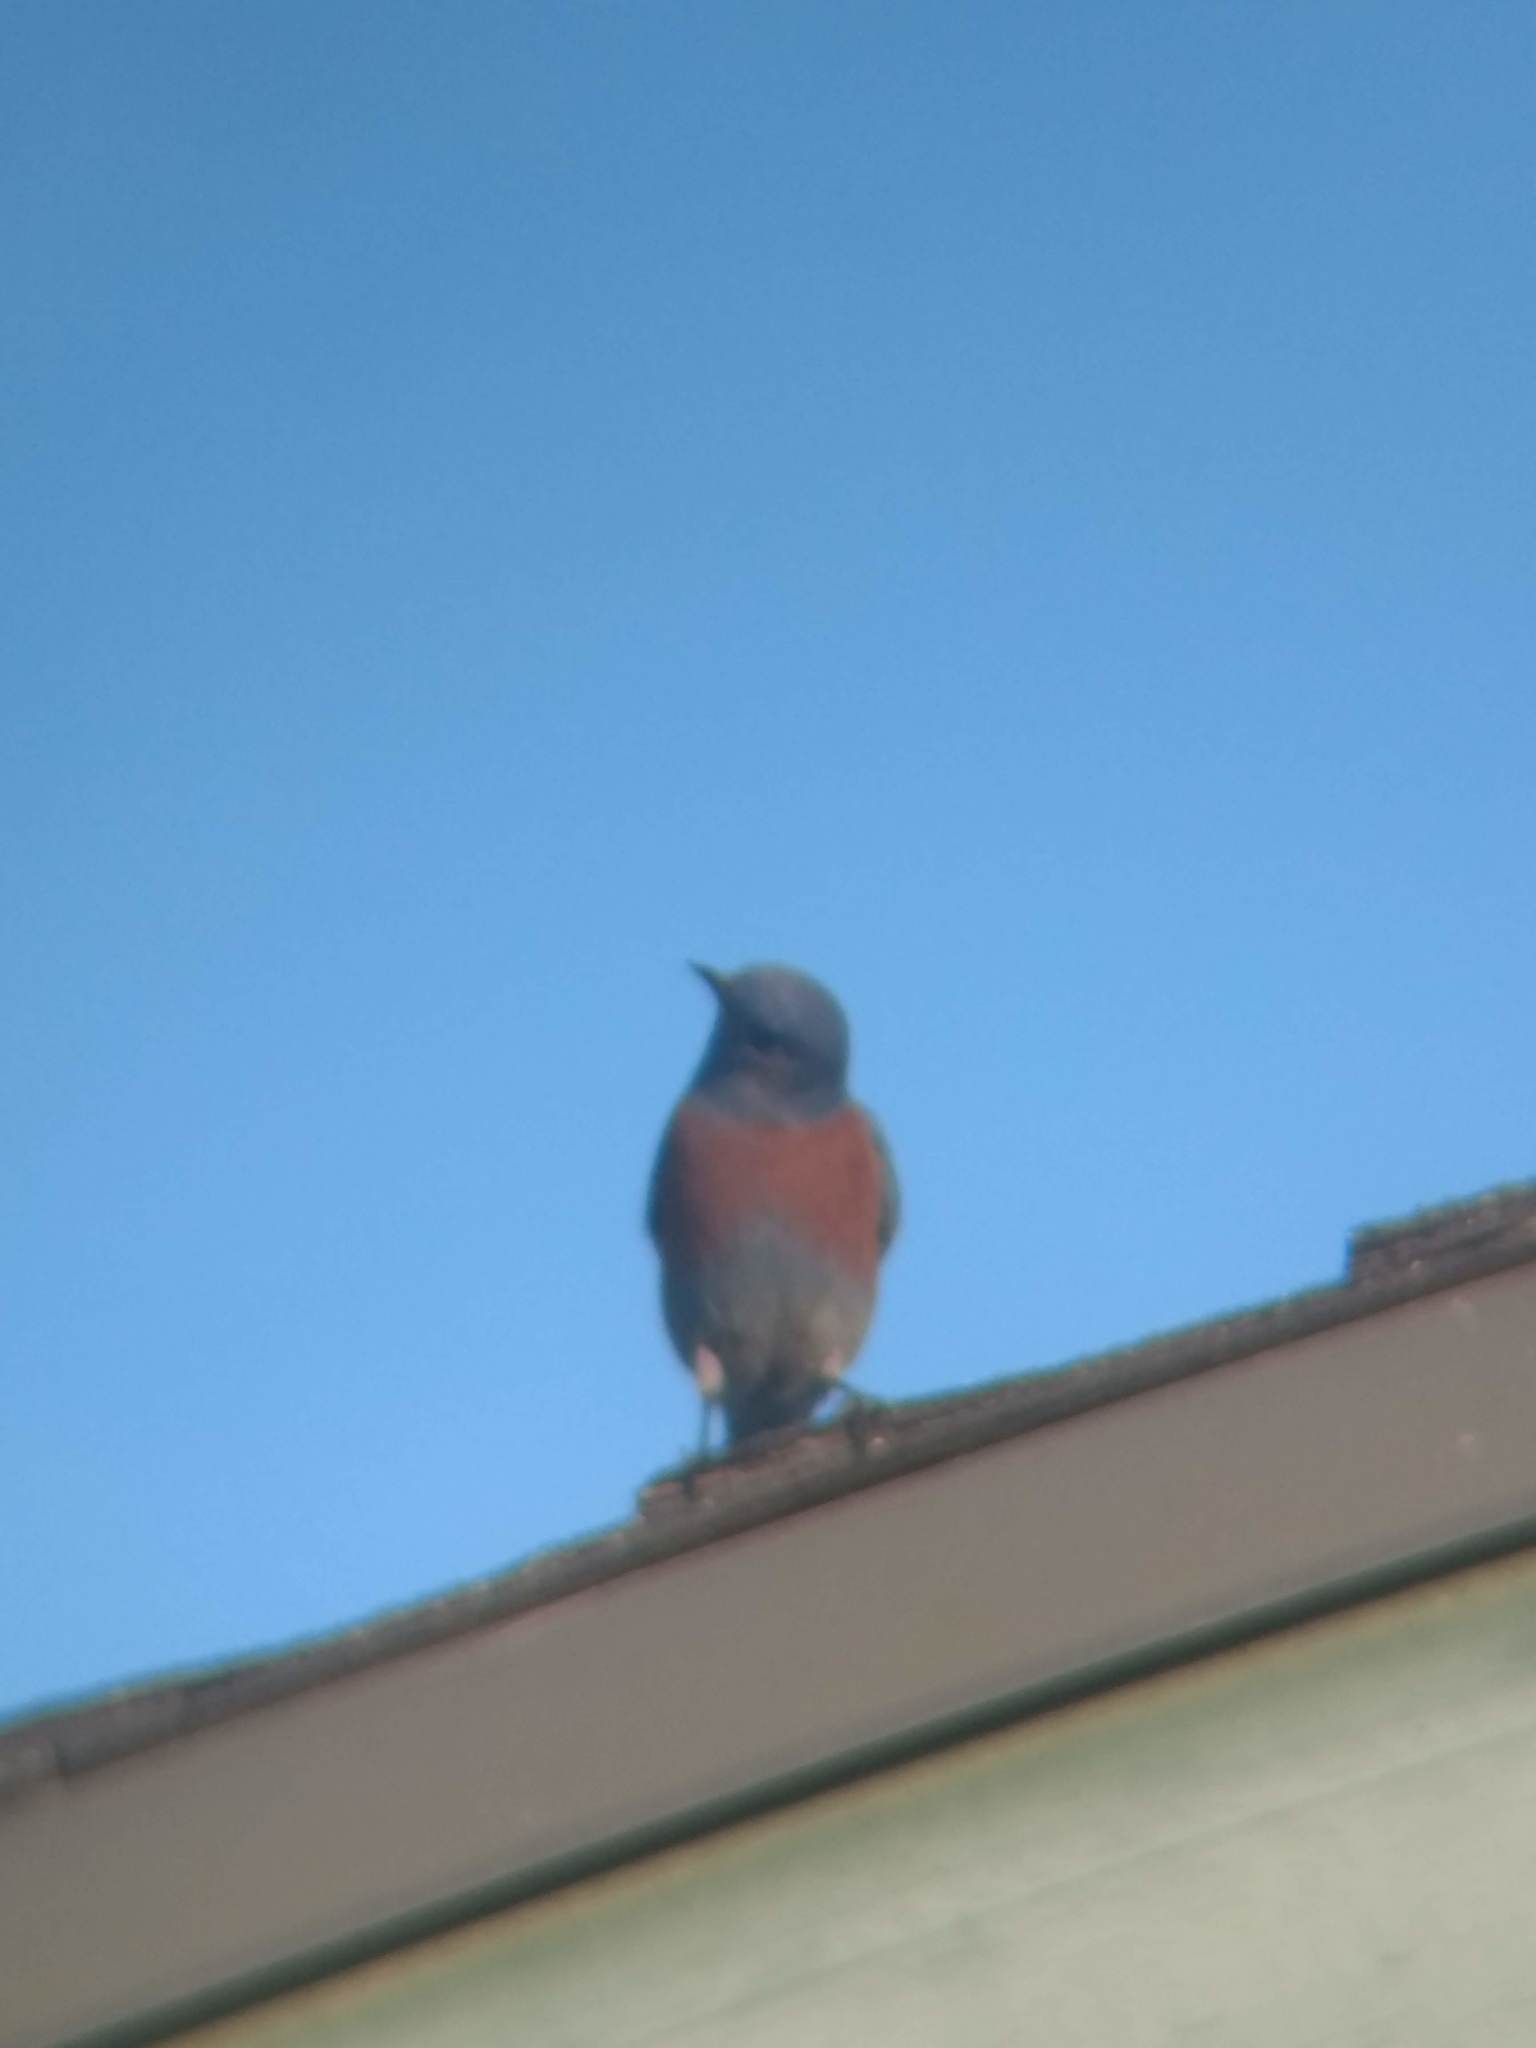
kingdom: Animalia
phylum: Chordata
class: Aves
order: Passeriformes
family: Turdidae
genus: Sialia
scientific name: Sialia mexicana
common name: Western bluebird
